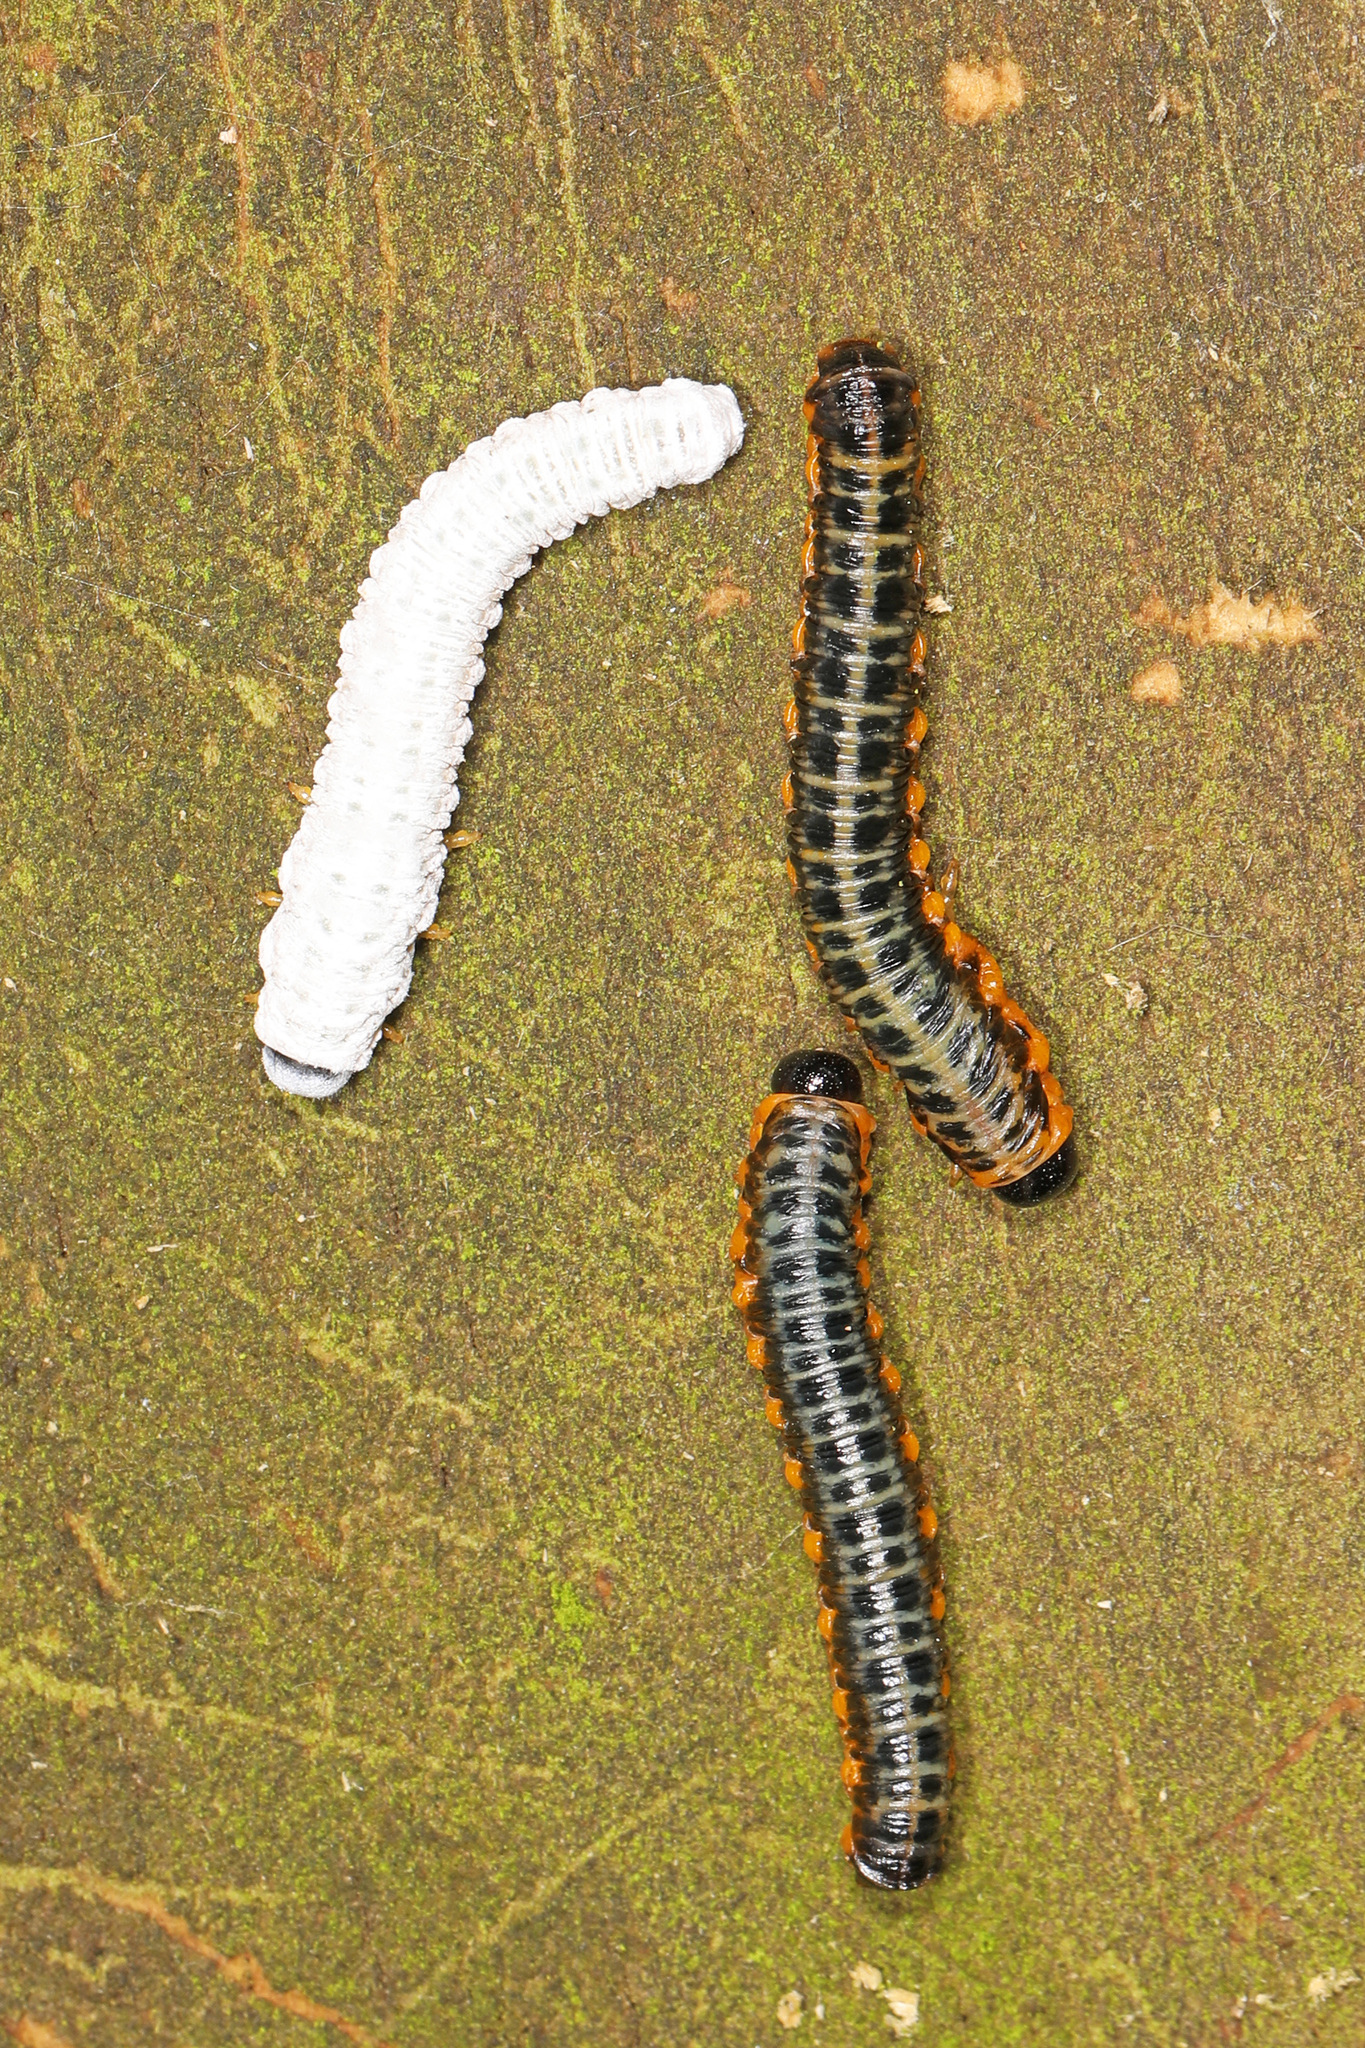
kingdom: Animalia
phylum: Arthropoda
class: Insecta
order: Hymenoptera
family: Tenthredinidae
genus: Macremphytus
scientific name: Macremphytus
